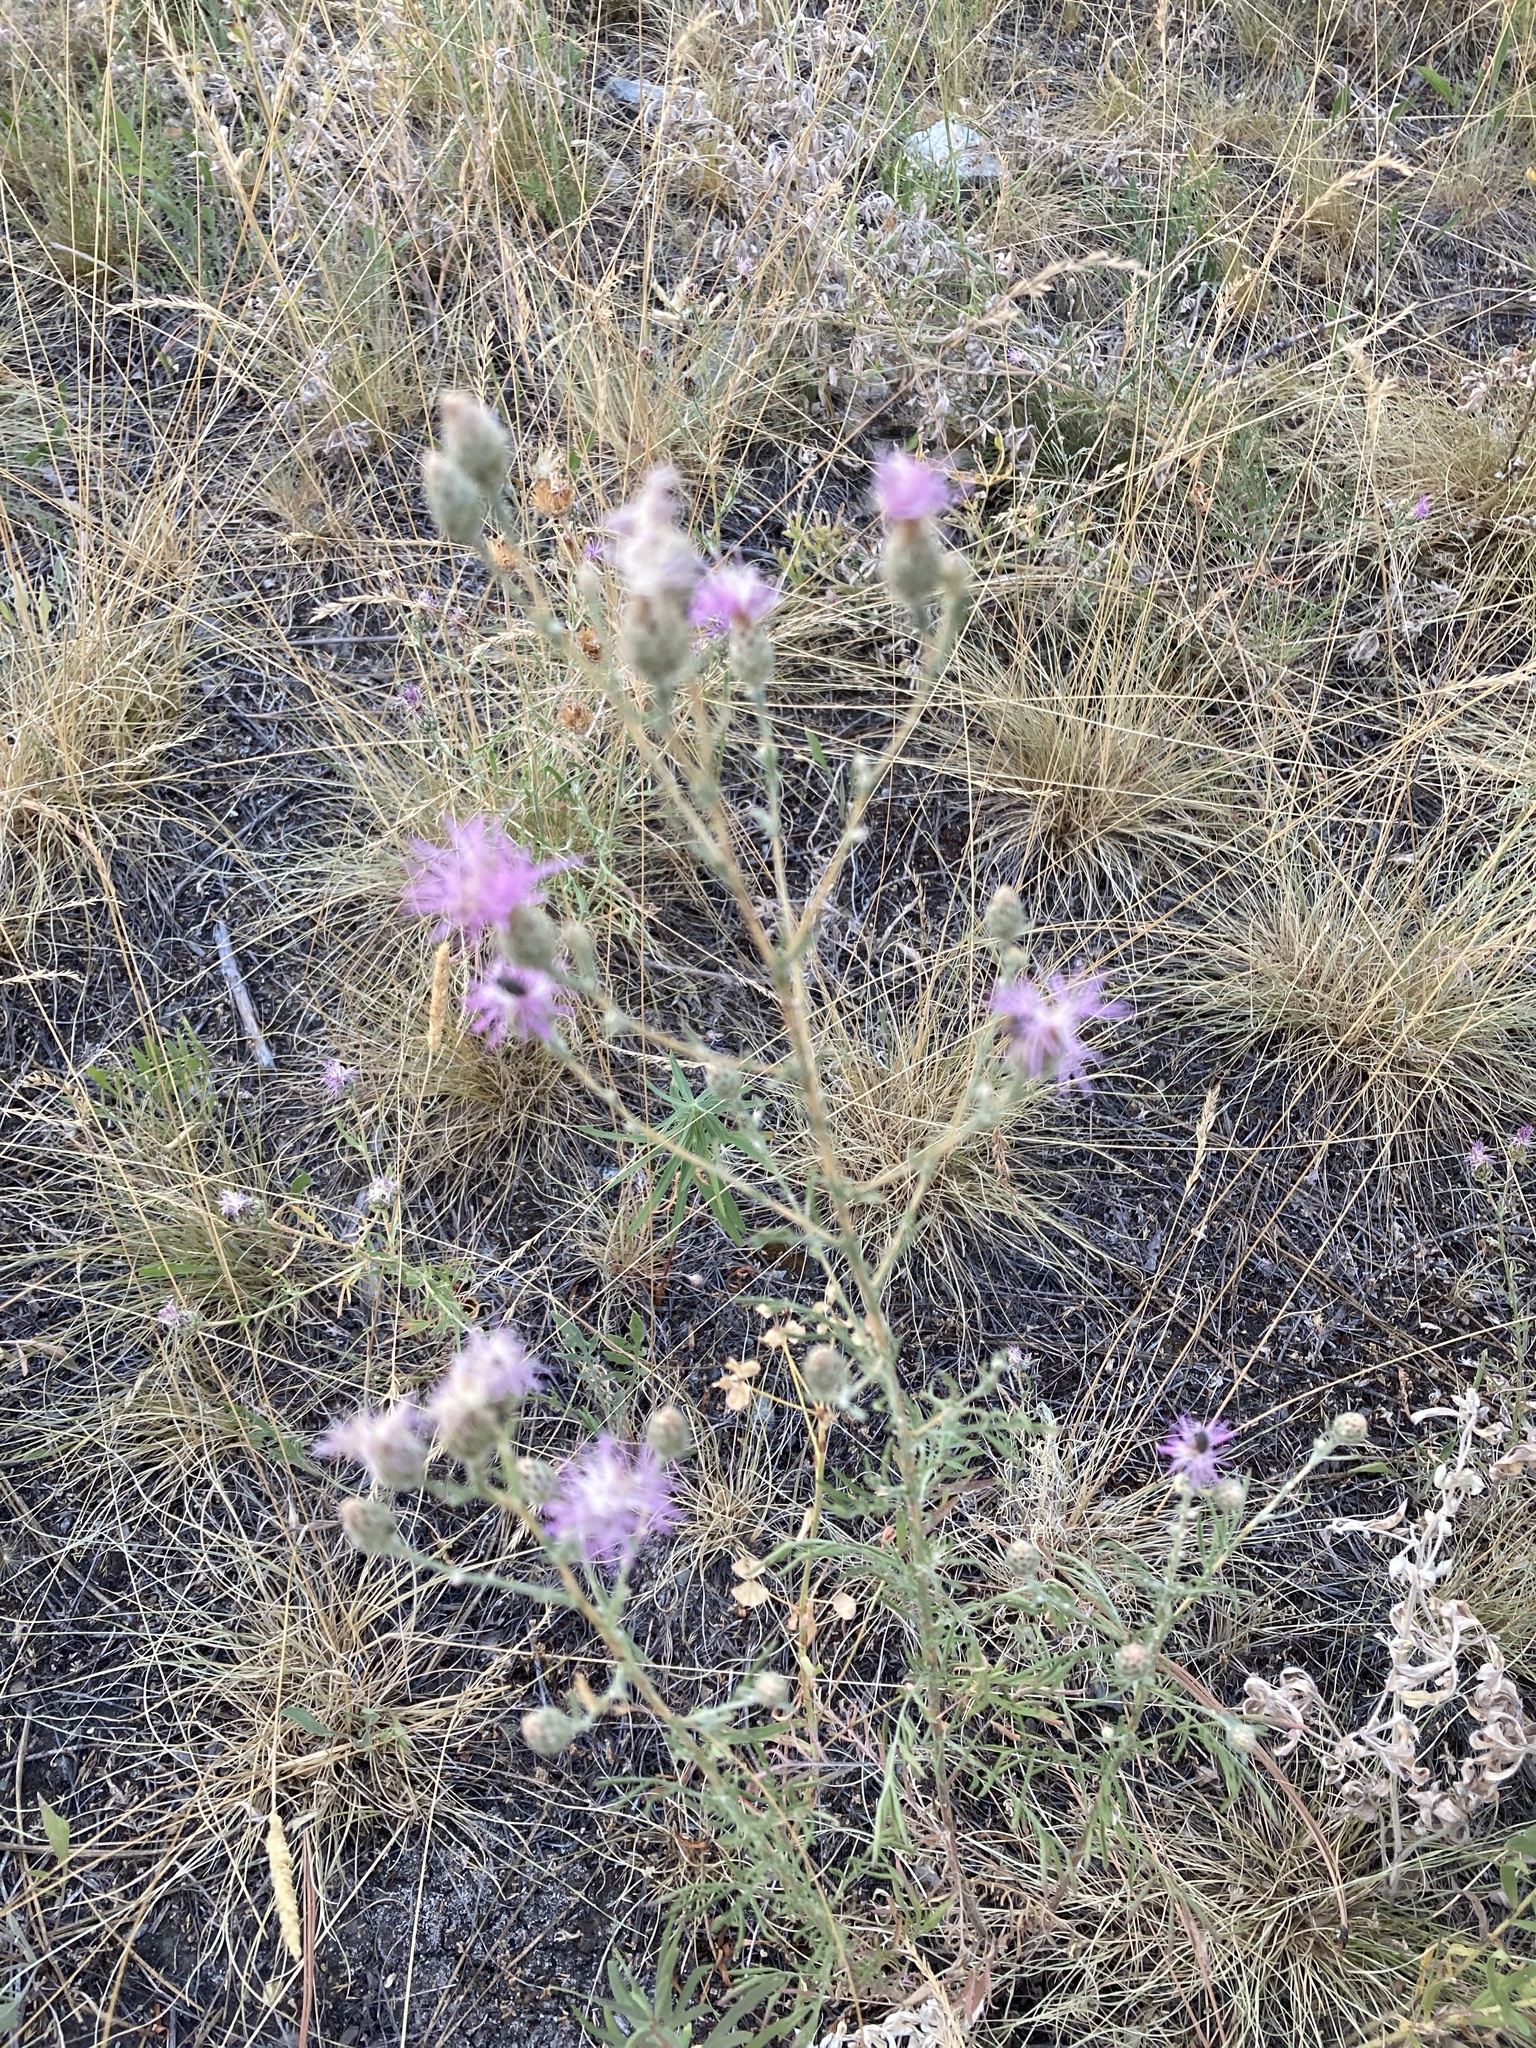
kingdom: Plantae
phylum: Tracheophyta
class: Magnoliopsida
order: Asterales
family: Asteraceae
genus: Centaurea
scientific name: Centaurea stoebe
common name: Spotted knapweed
